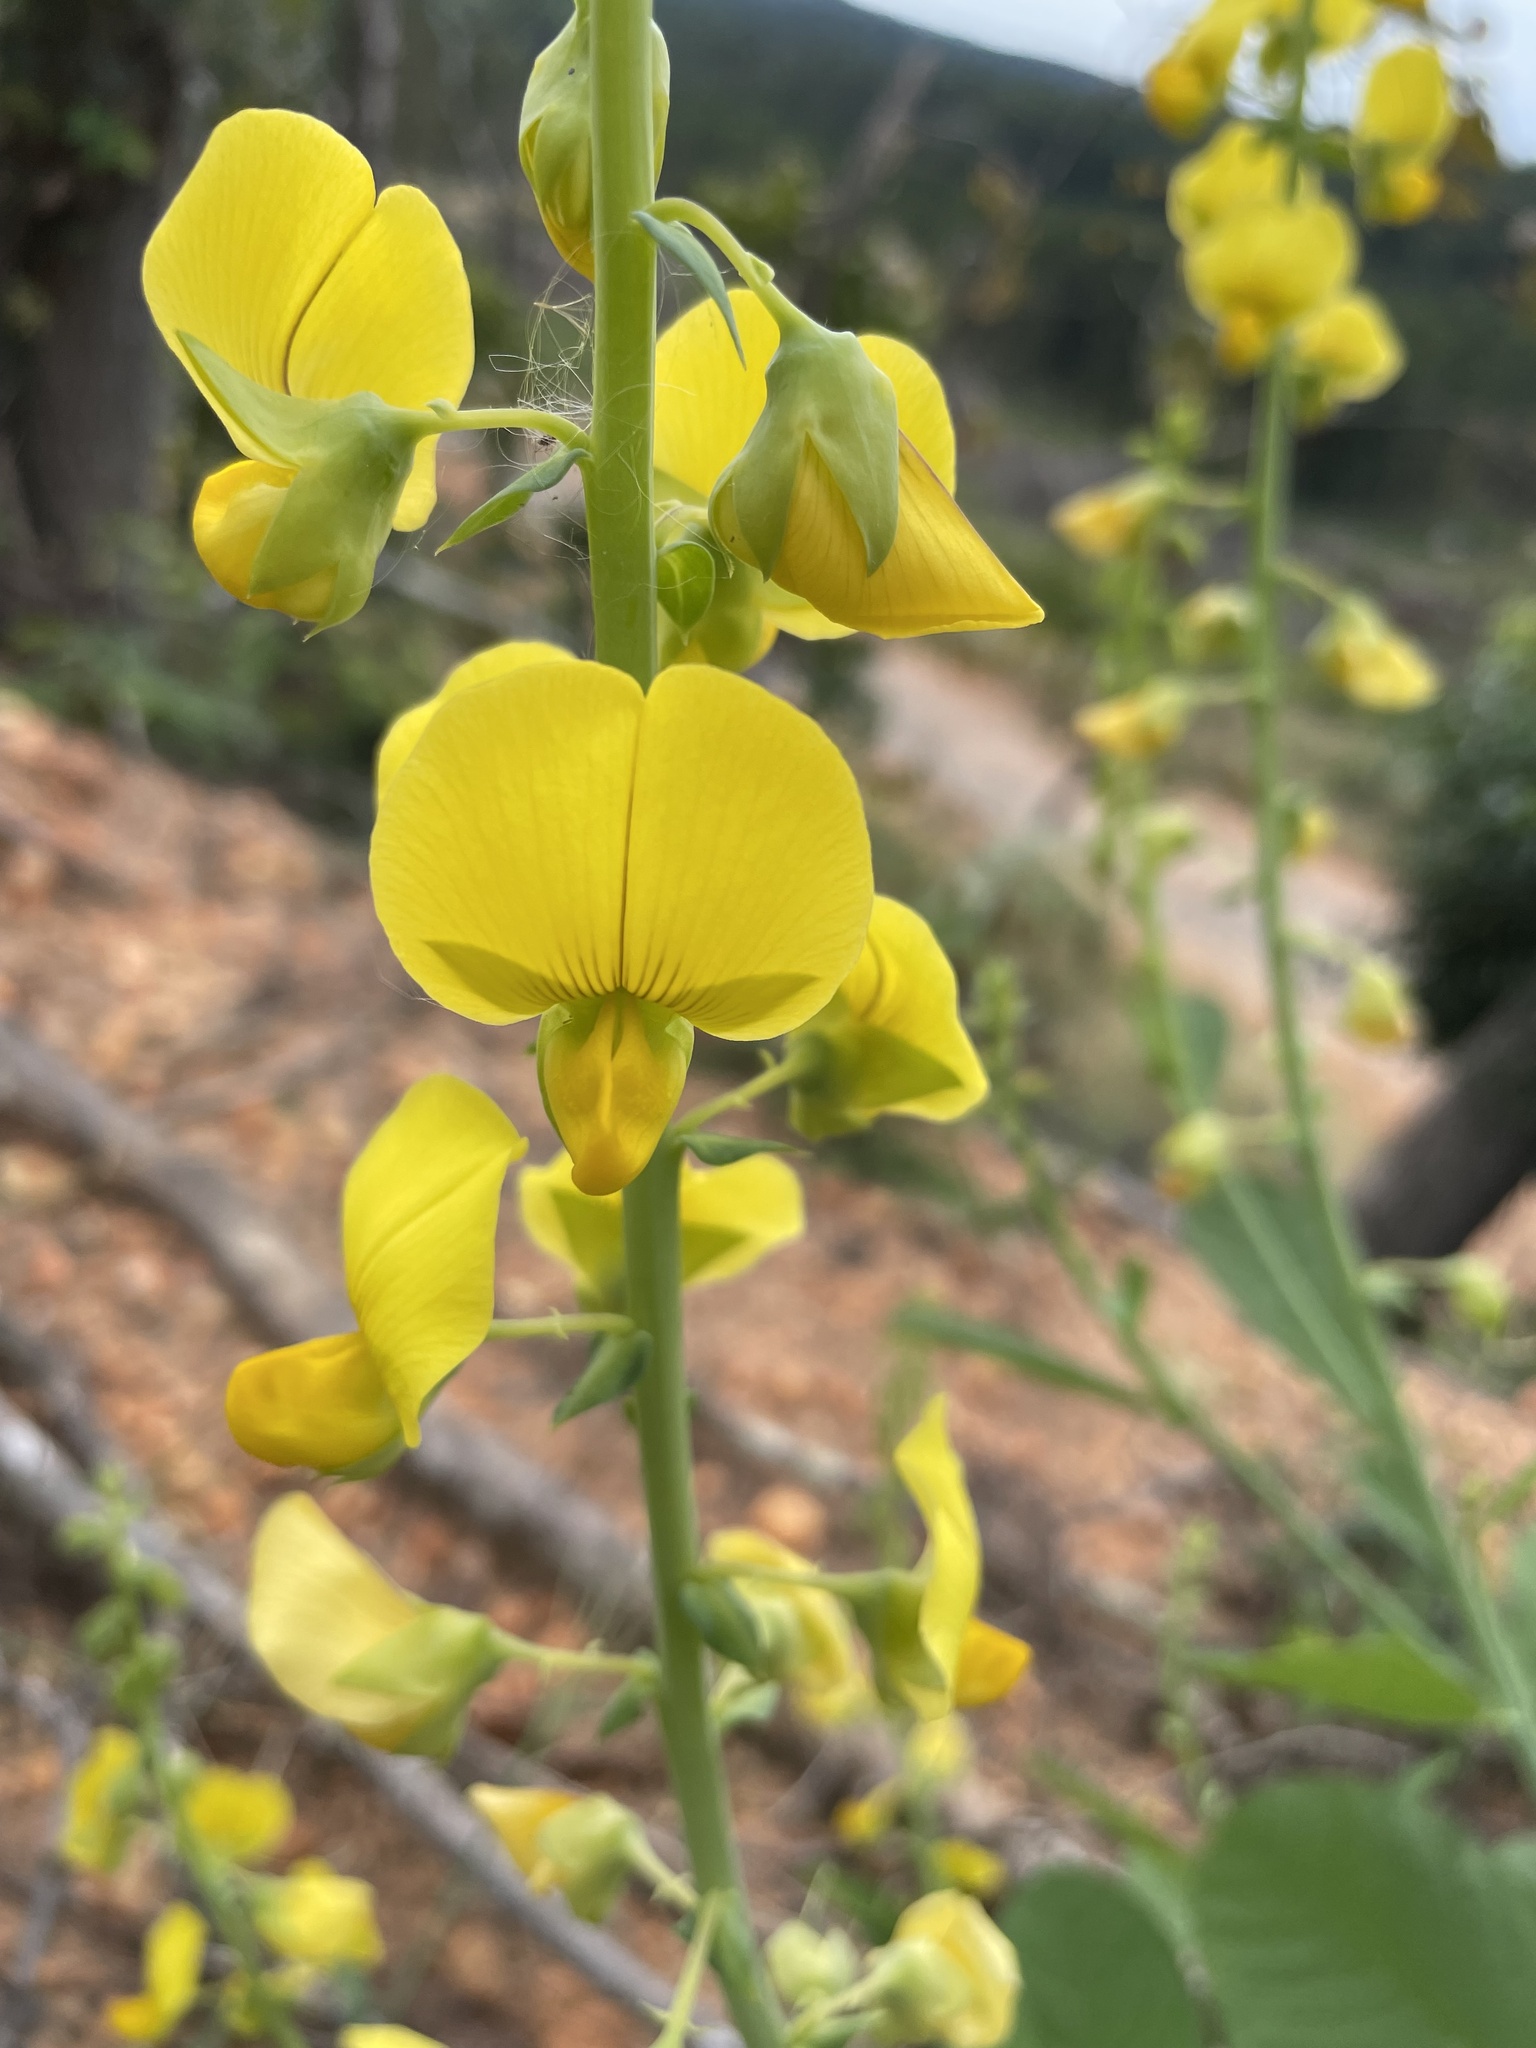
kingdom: Plantae
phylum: Tracheophyta
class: Magnoliopsida
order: Fabales
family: Fabaceae
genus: Crotalaria
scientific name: Crotalaria spectabilis
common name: Showy rattlebox
